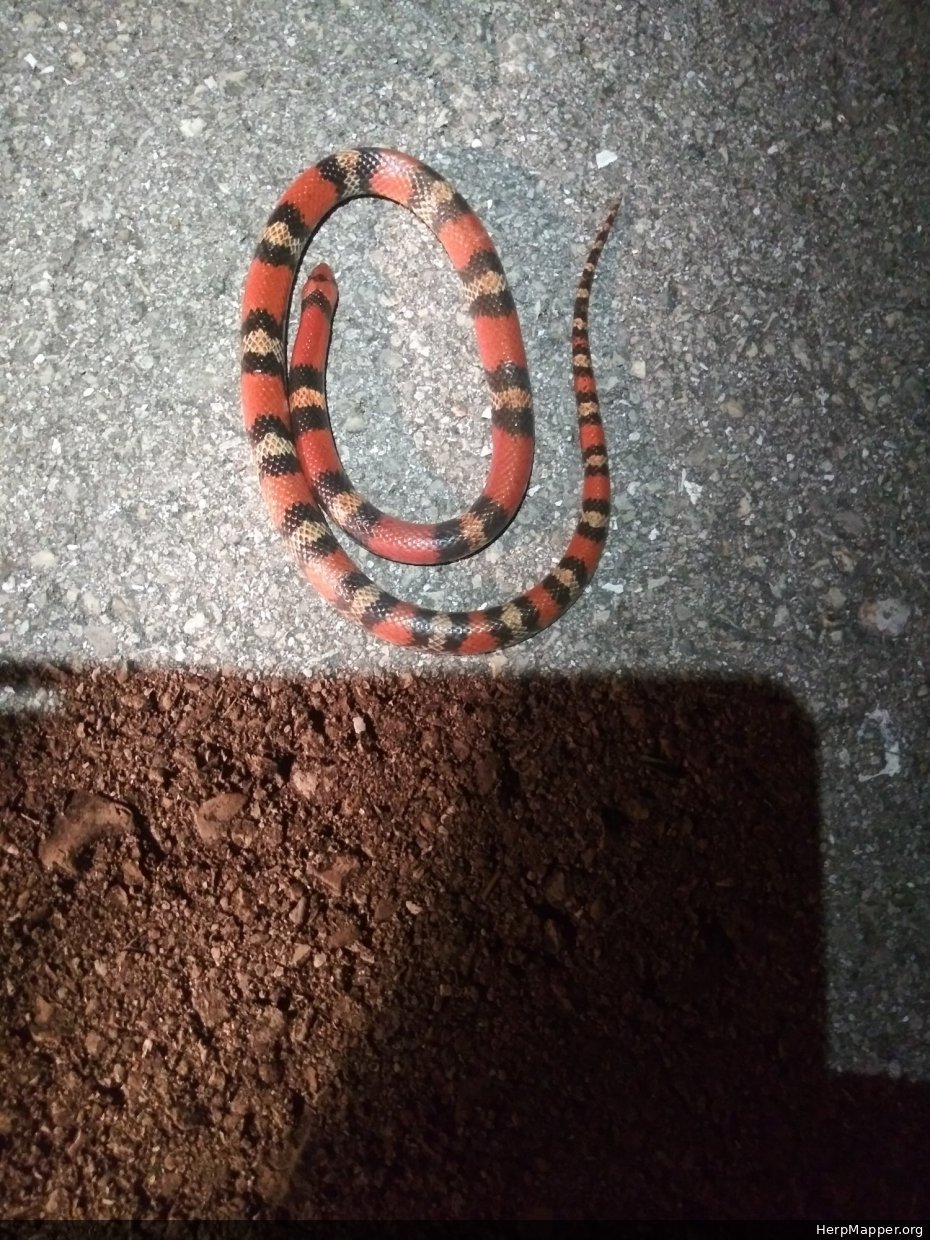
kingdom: Animalia
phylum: Chordata
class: Squamata
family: Colubridae
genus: Cemophora
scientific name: Cemophora coccinea
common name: Scarlet snake
